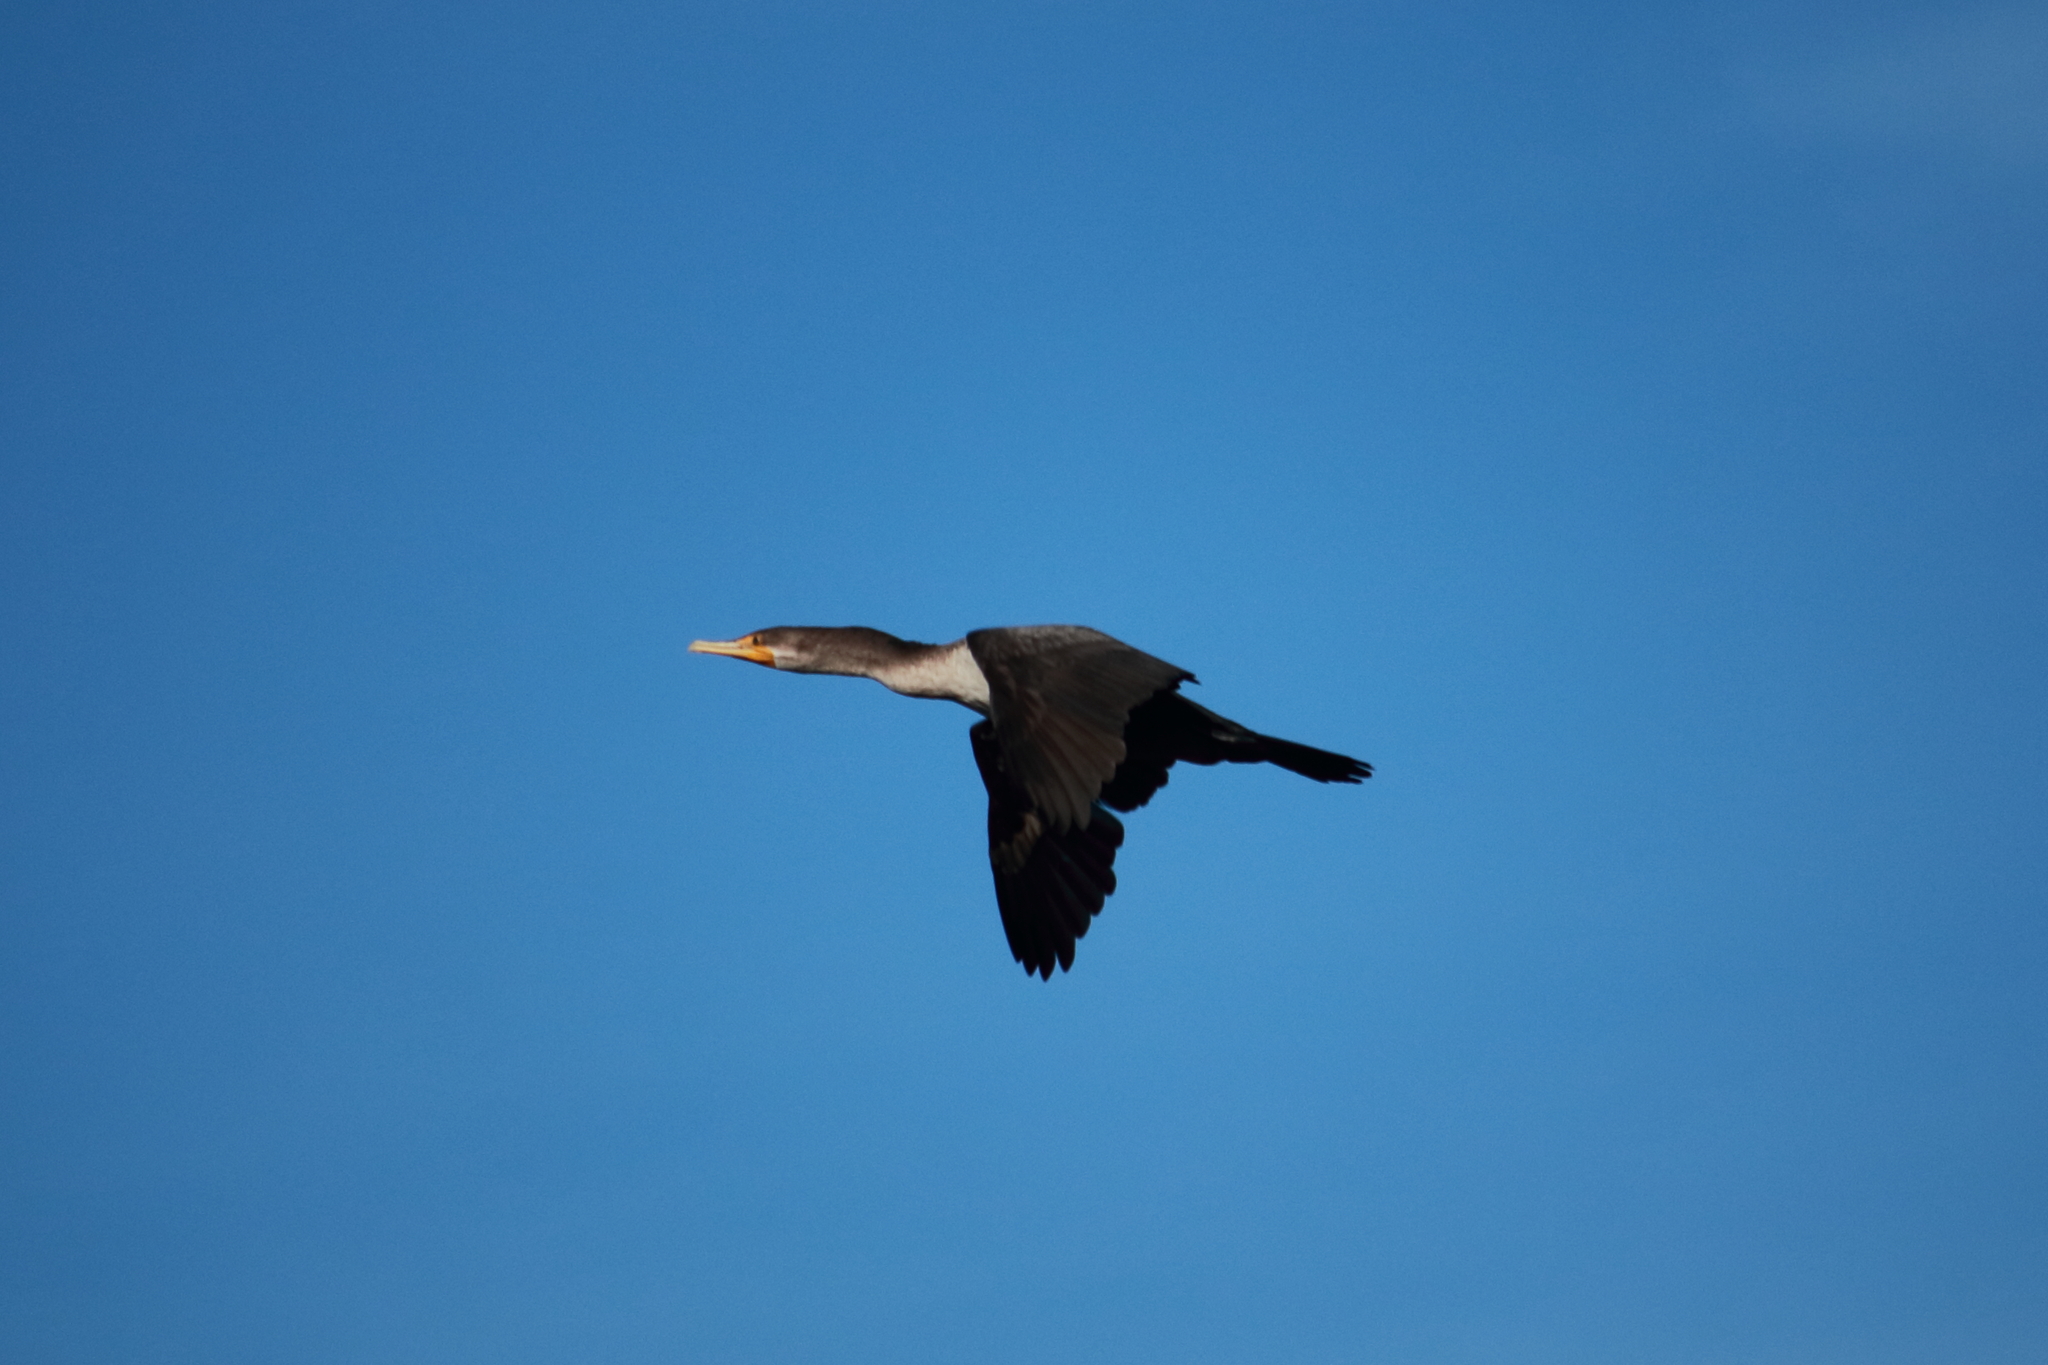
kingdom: Animalia
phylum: Chordata
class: Aves
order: Suliformes
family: Phalacrocoracidae
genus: Phalacrocorax
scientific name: Phalacrocorax auritus
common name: Double-crested cormorant
